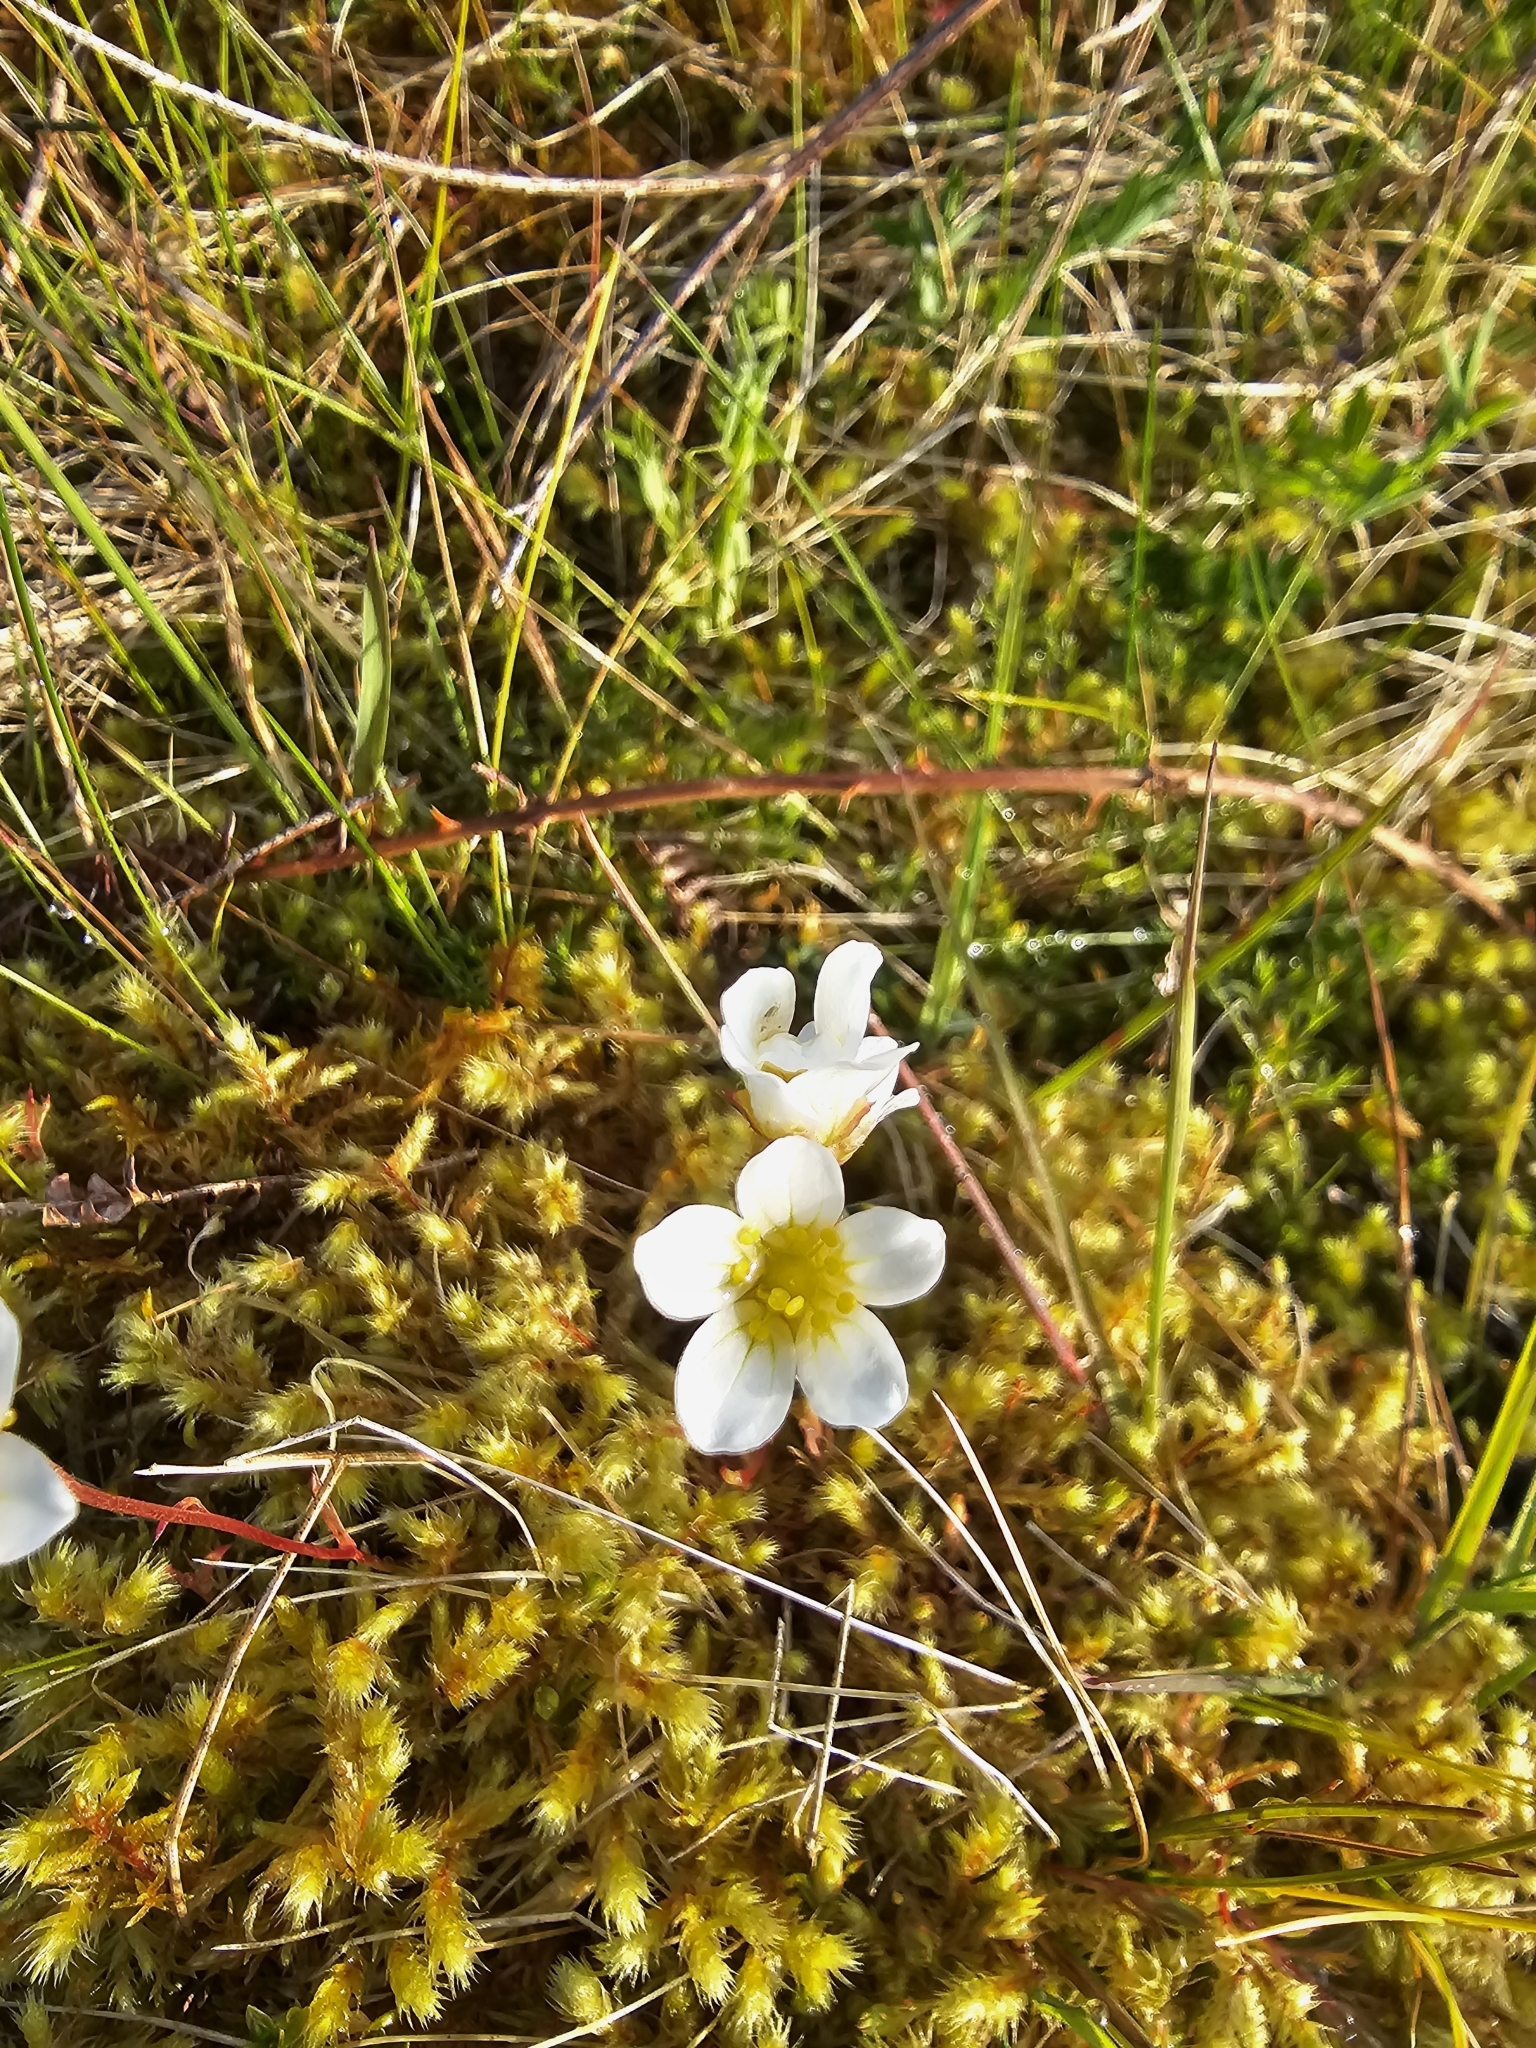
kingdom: Plantae
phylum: Tracheophyta
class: Magnoliopsida
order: Saxifragales
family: Saxifragaceae
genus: Saxifraga
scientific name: Saxifraga hypnoides
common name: Mossy saxifrage
